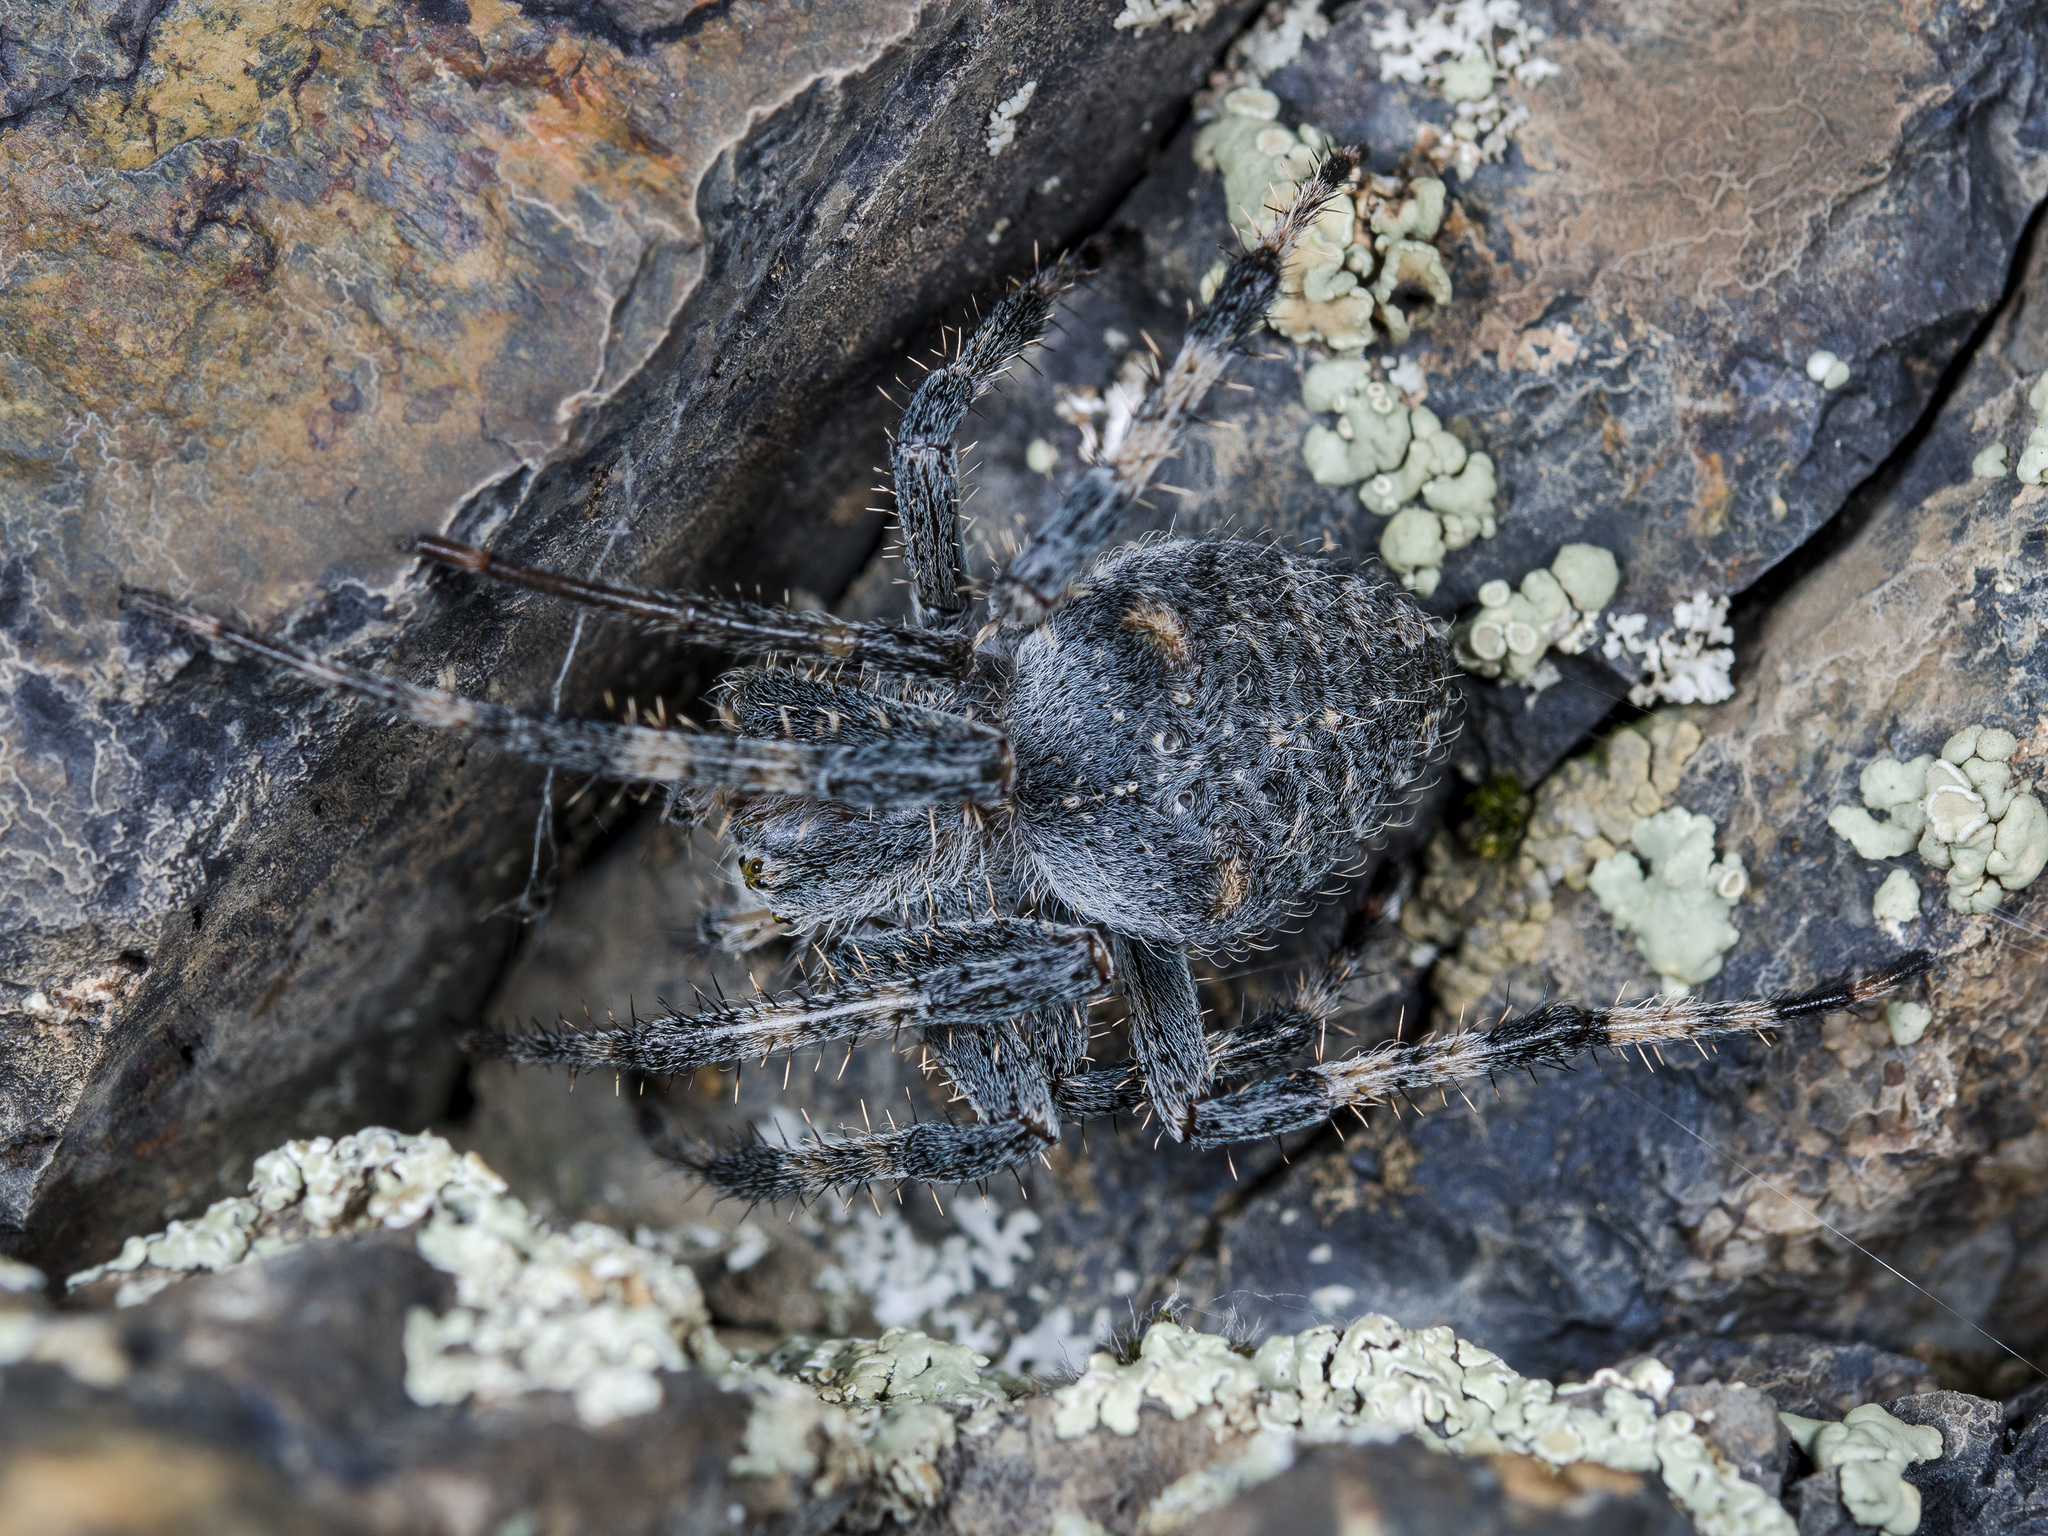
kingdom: Animalia
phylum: Arthropoda
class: Arachnida
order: Araneae
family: Araneidae
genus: Araneus
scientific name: Araneus miquanensis
